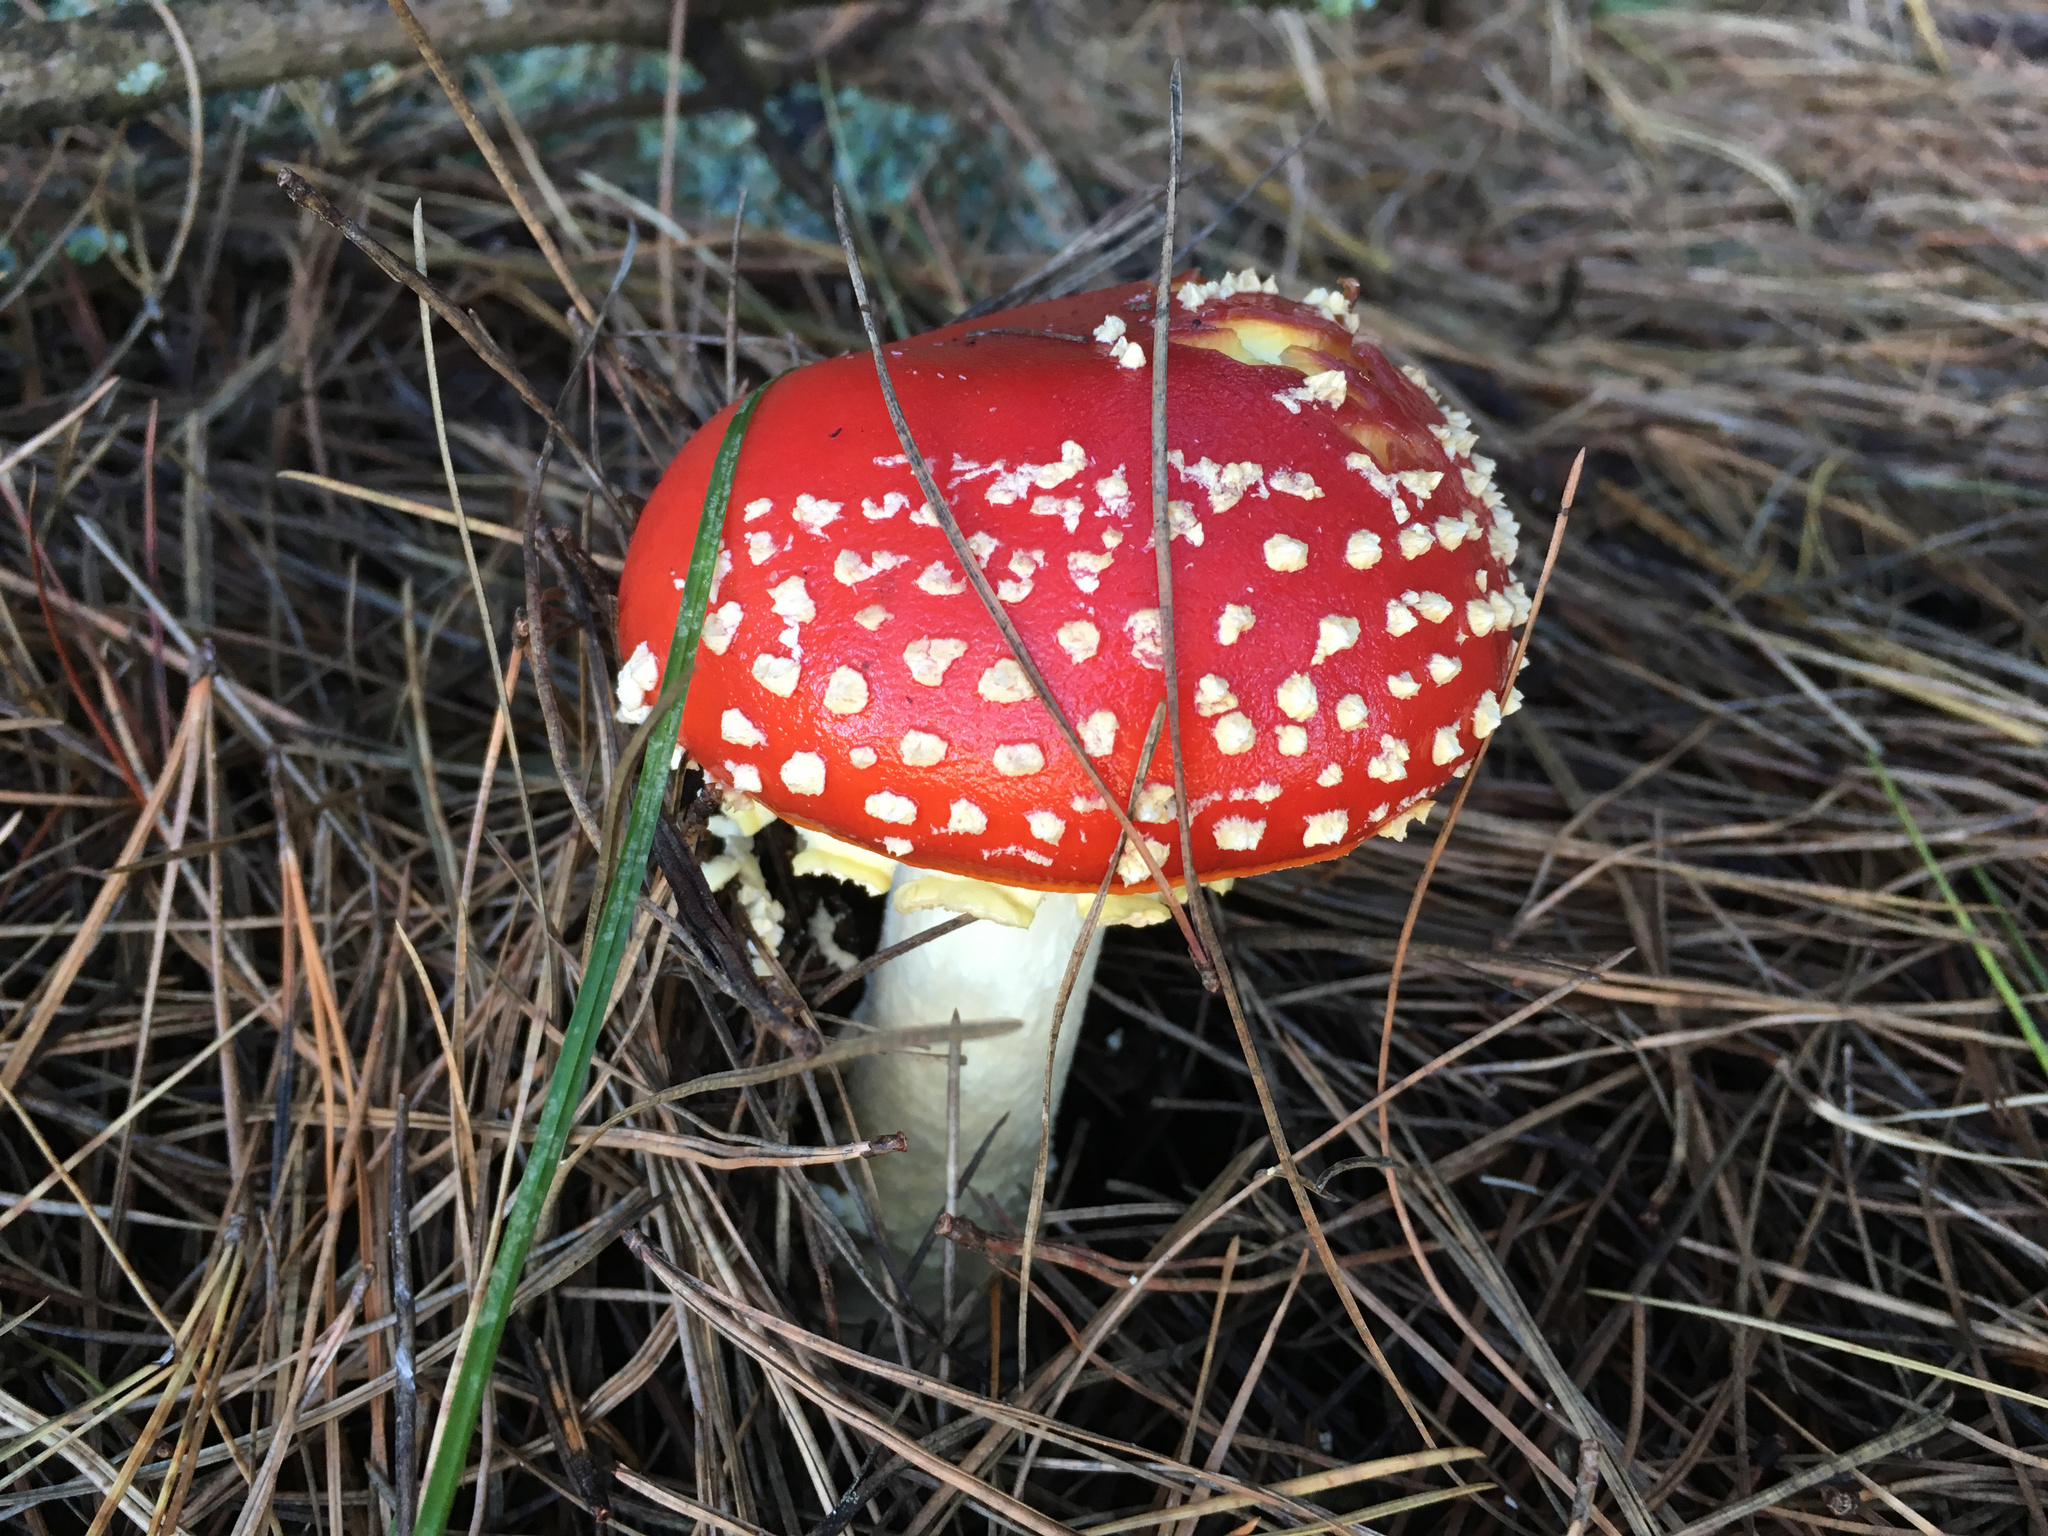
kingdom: Fungi
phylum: Basidiomycota
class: Agaricomycetes
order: Agaricales
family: Amanitaceae
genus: Amanita
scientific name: Amanita muscaria
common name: Fly agaric
